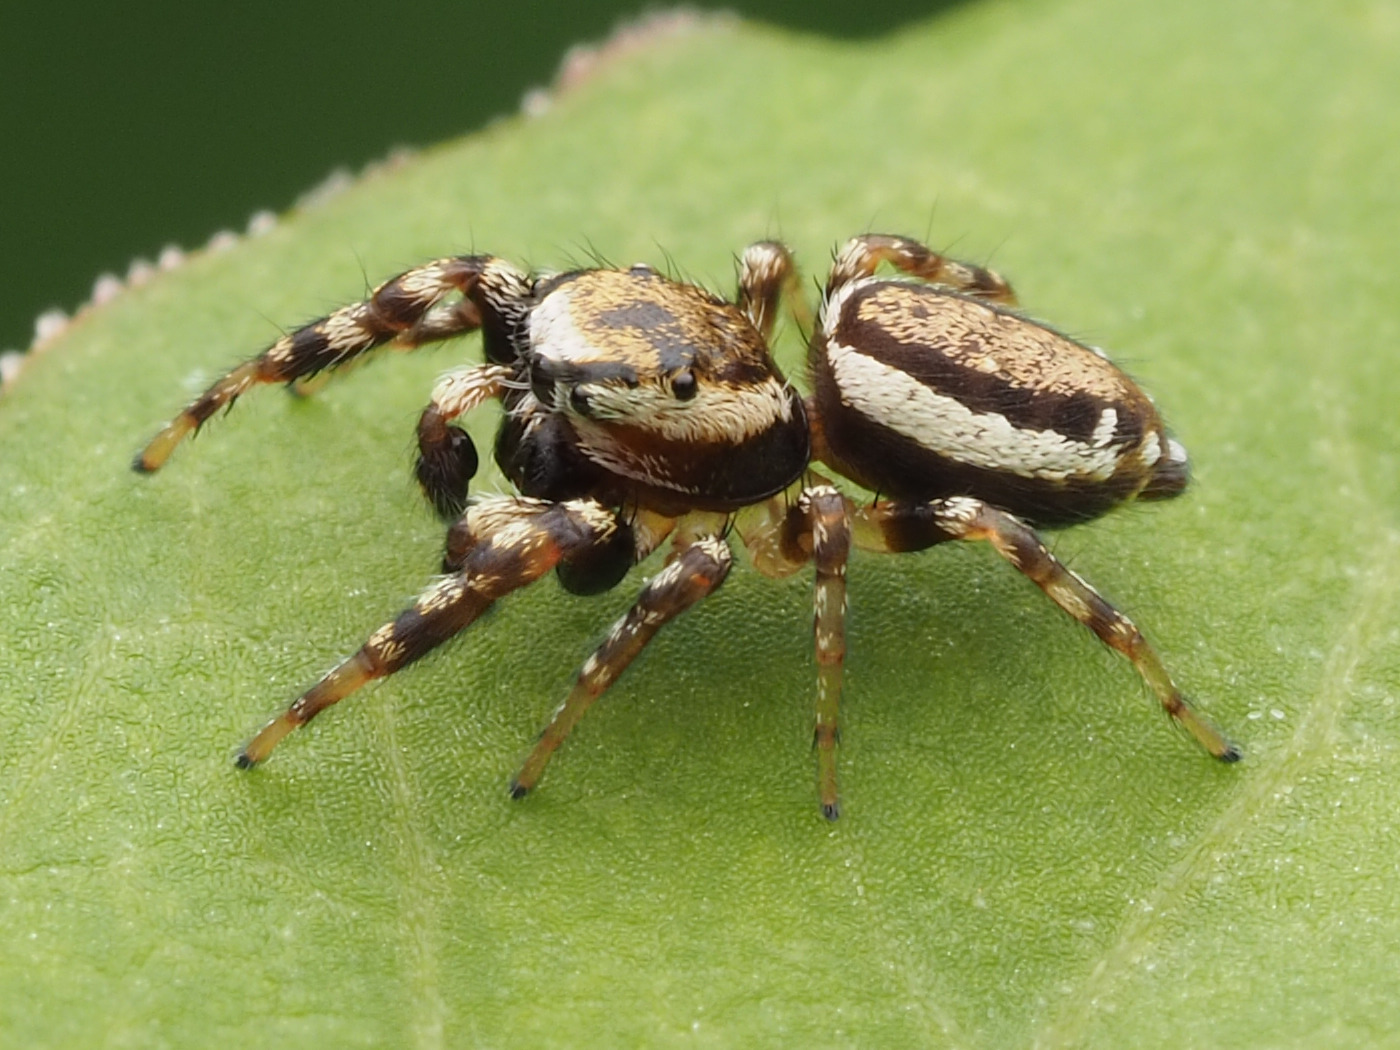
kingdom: Animalia
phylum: Arthropoda
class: Arachnida
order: Araneae
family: Salticidae
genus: Pelegrina
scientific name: Pelegrina proterva
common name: Common white-cheeked jumping spider
